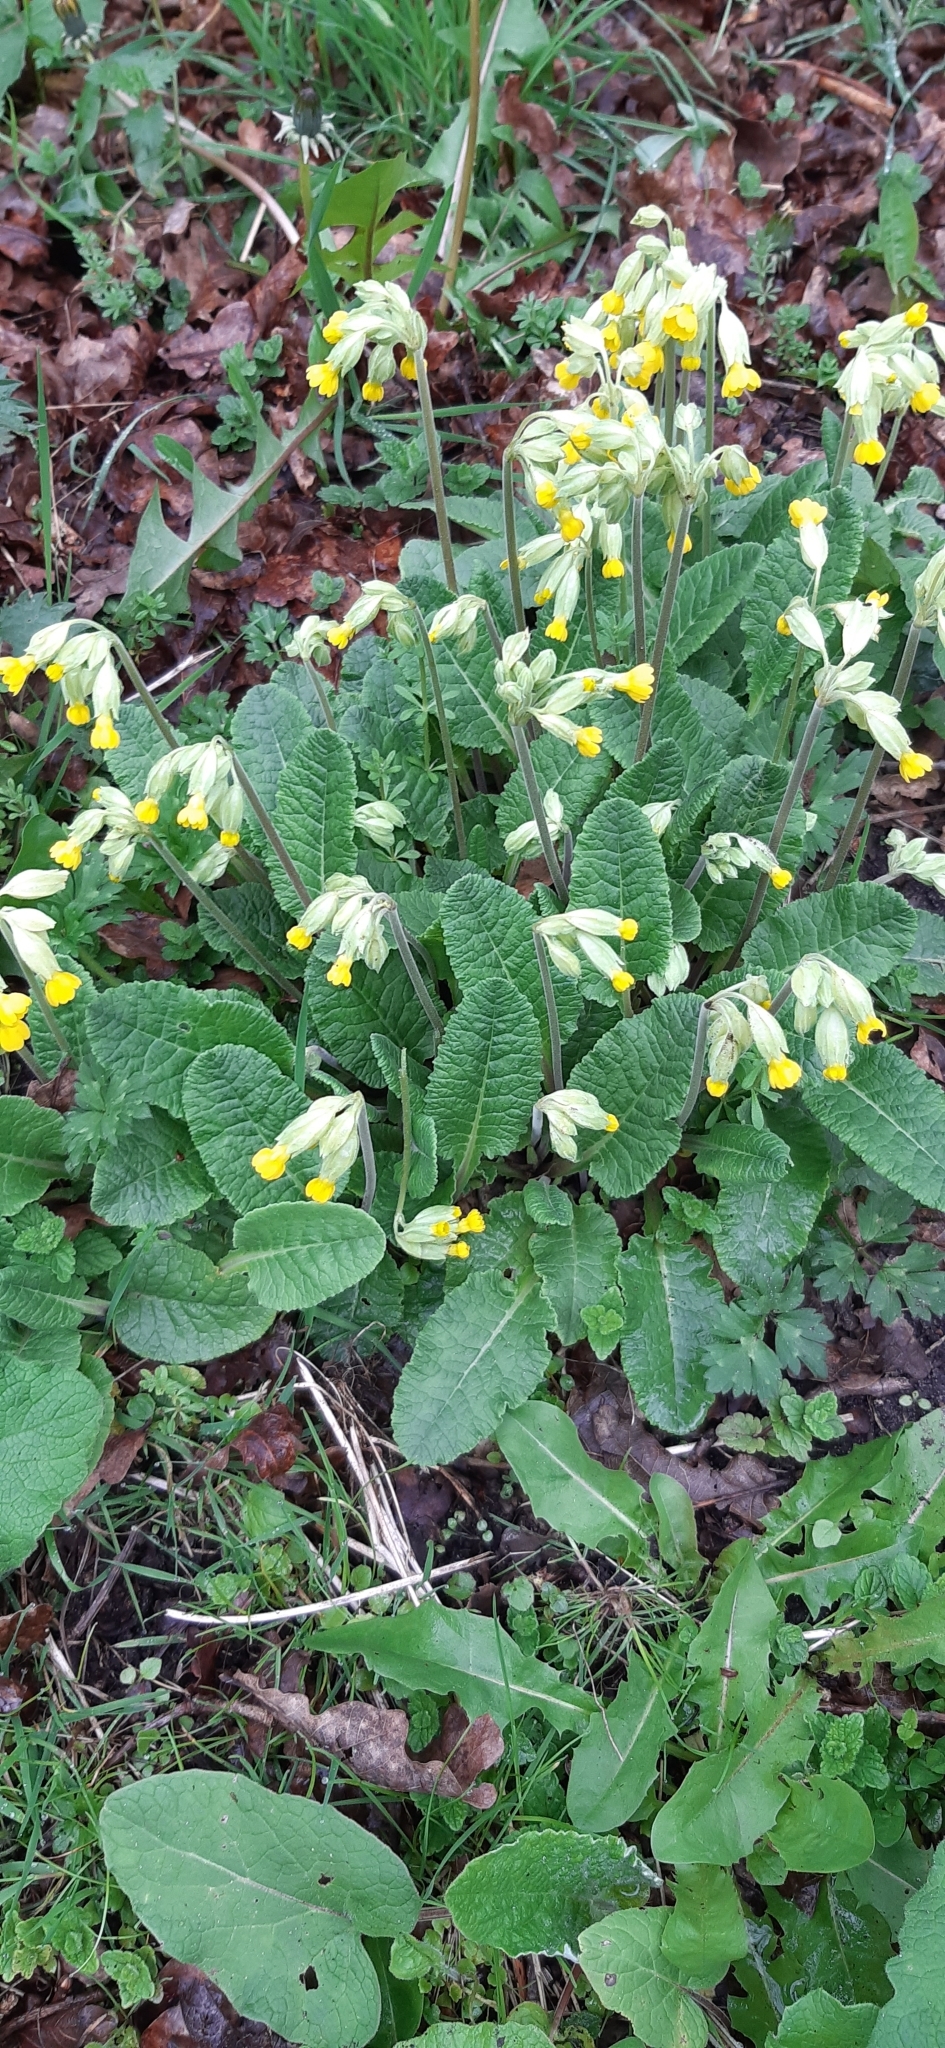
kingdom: Plantae
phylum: Tracheophyta
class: Magnoliopsida
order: Ericales
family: Primulaceae
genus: Primula
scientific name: Primula veris
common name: Cowslip
